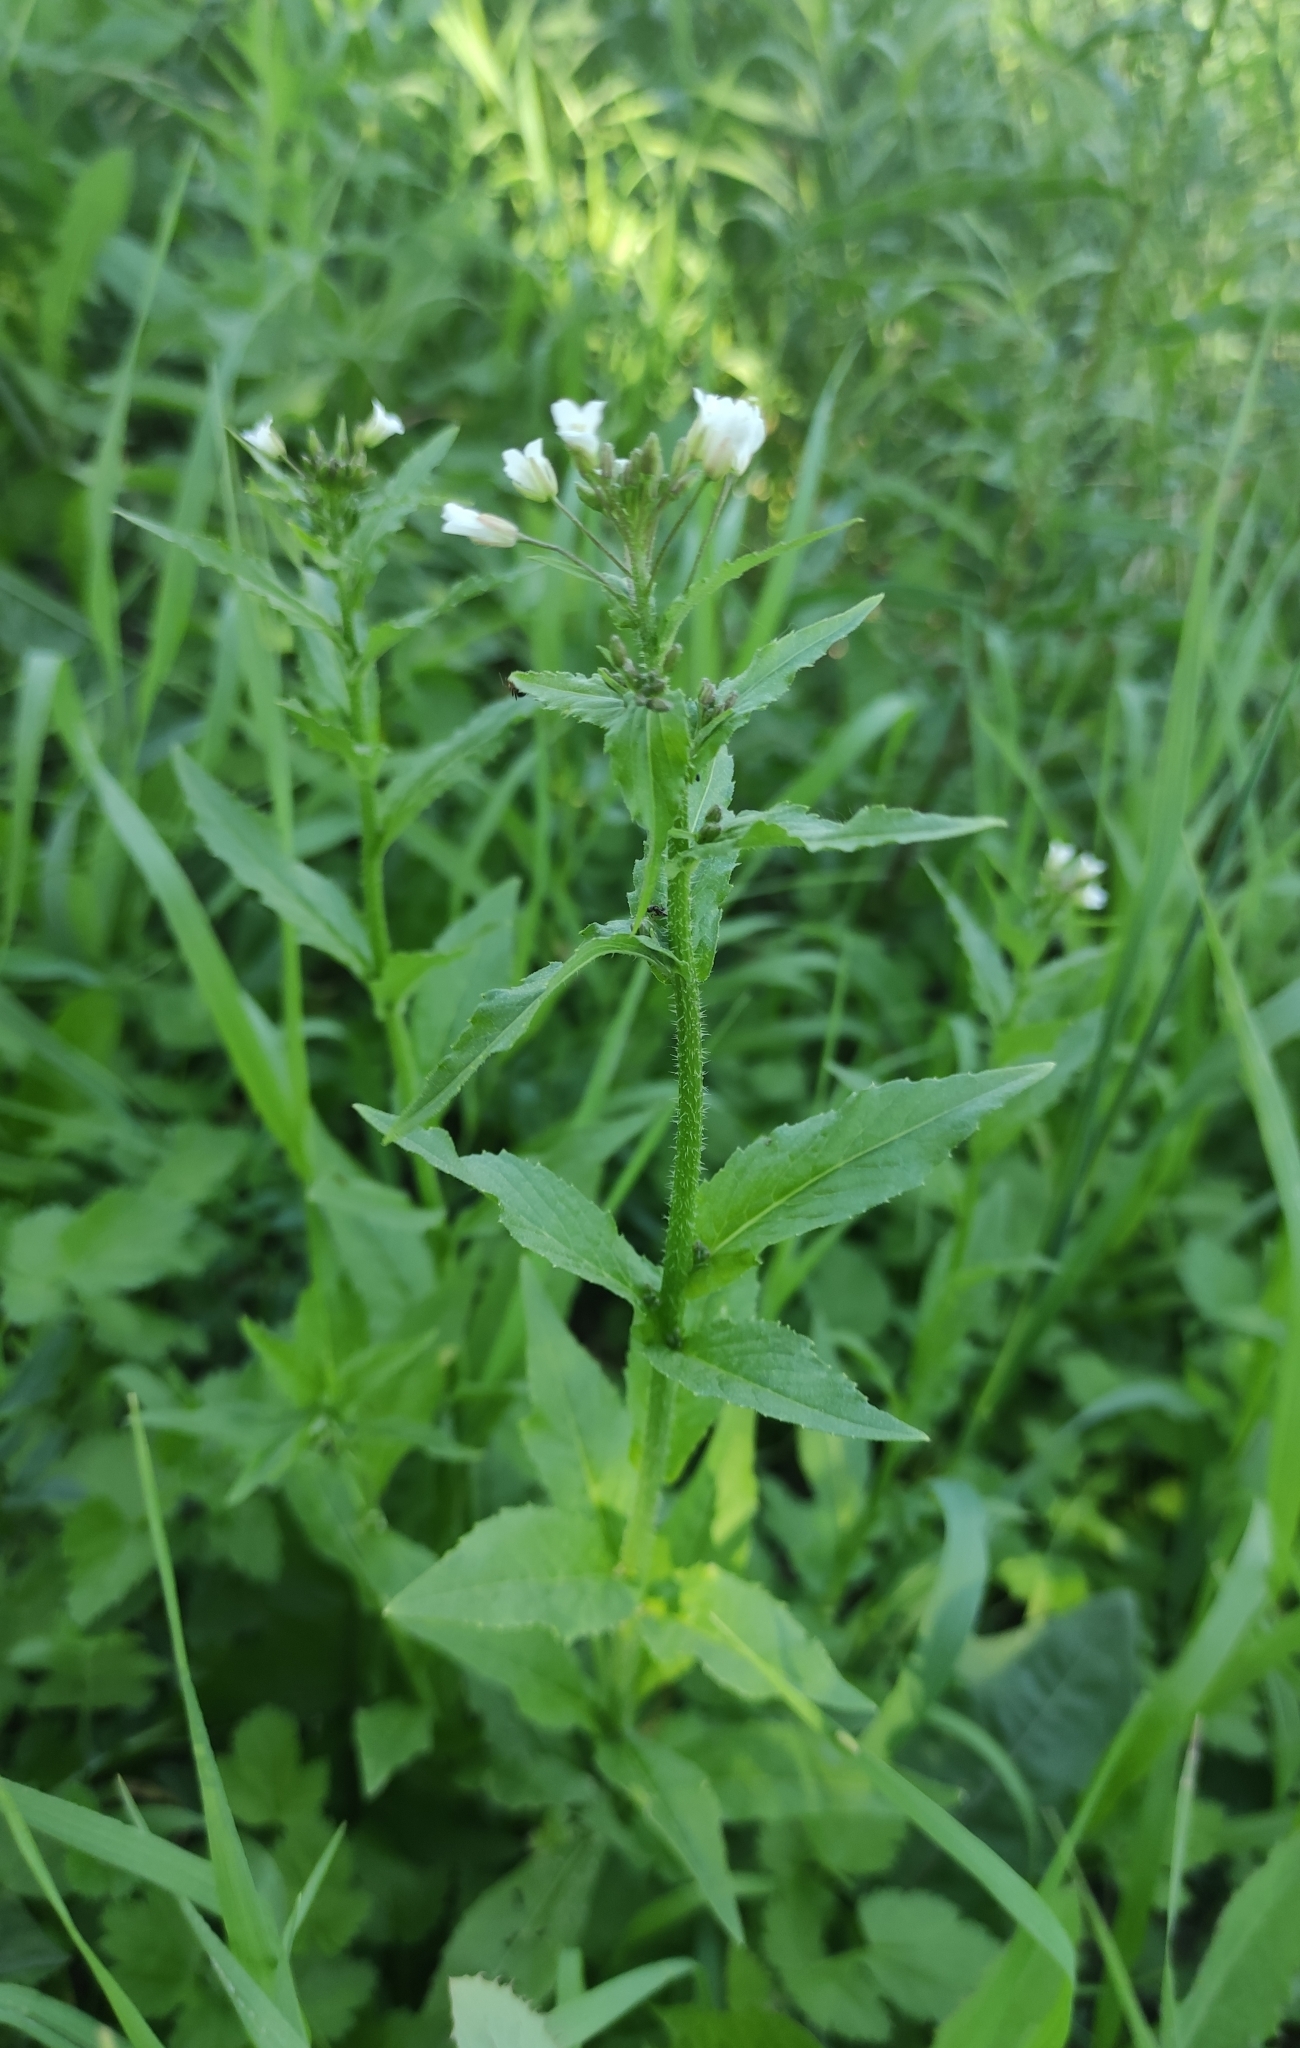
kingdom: Plantae
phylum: Tracheophyta
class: Magnoliopsida
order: Brassicales
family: Brassicaceae
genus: Catolobus
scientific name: Catolobus pendulus
